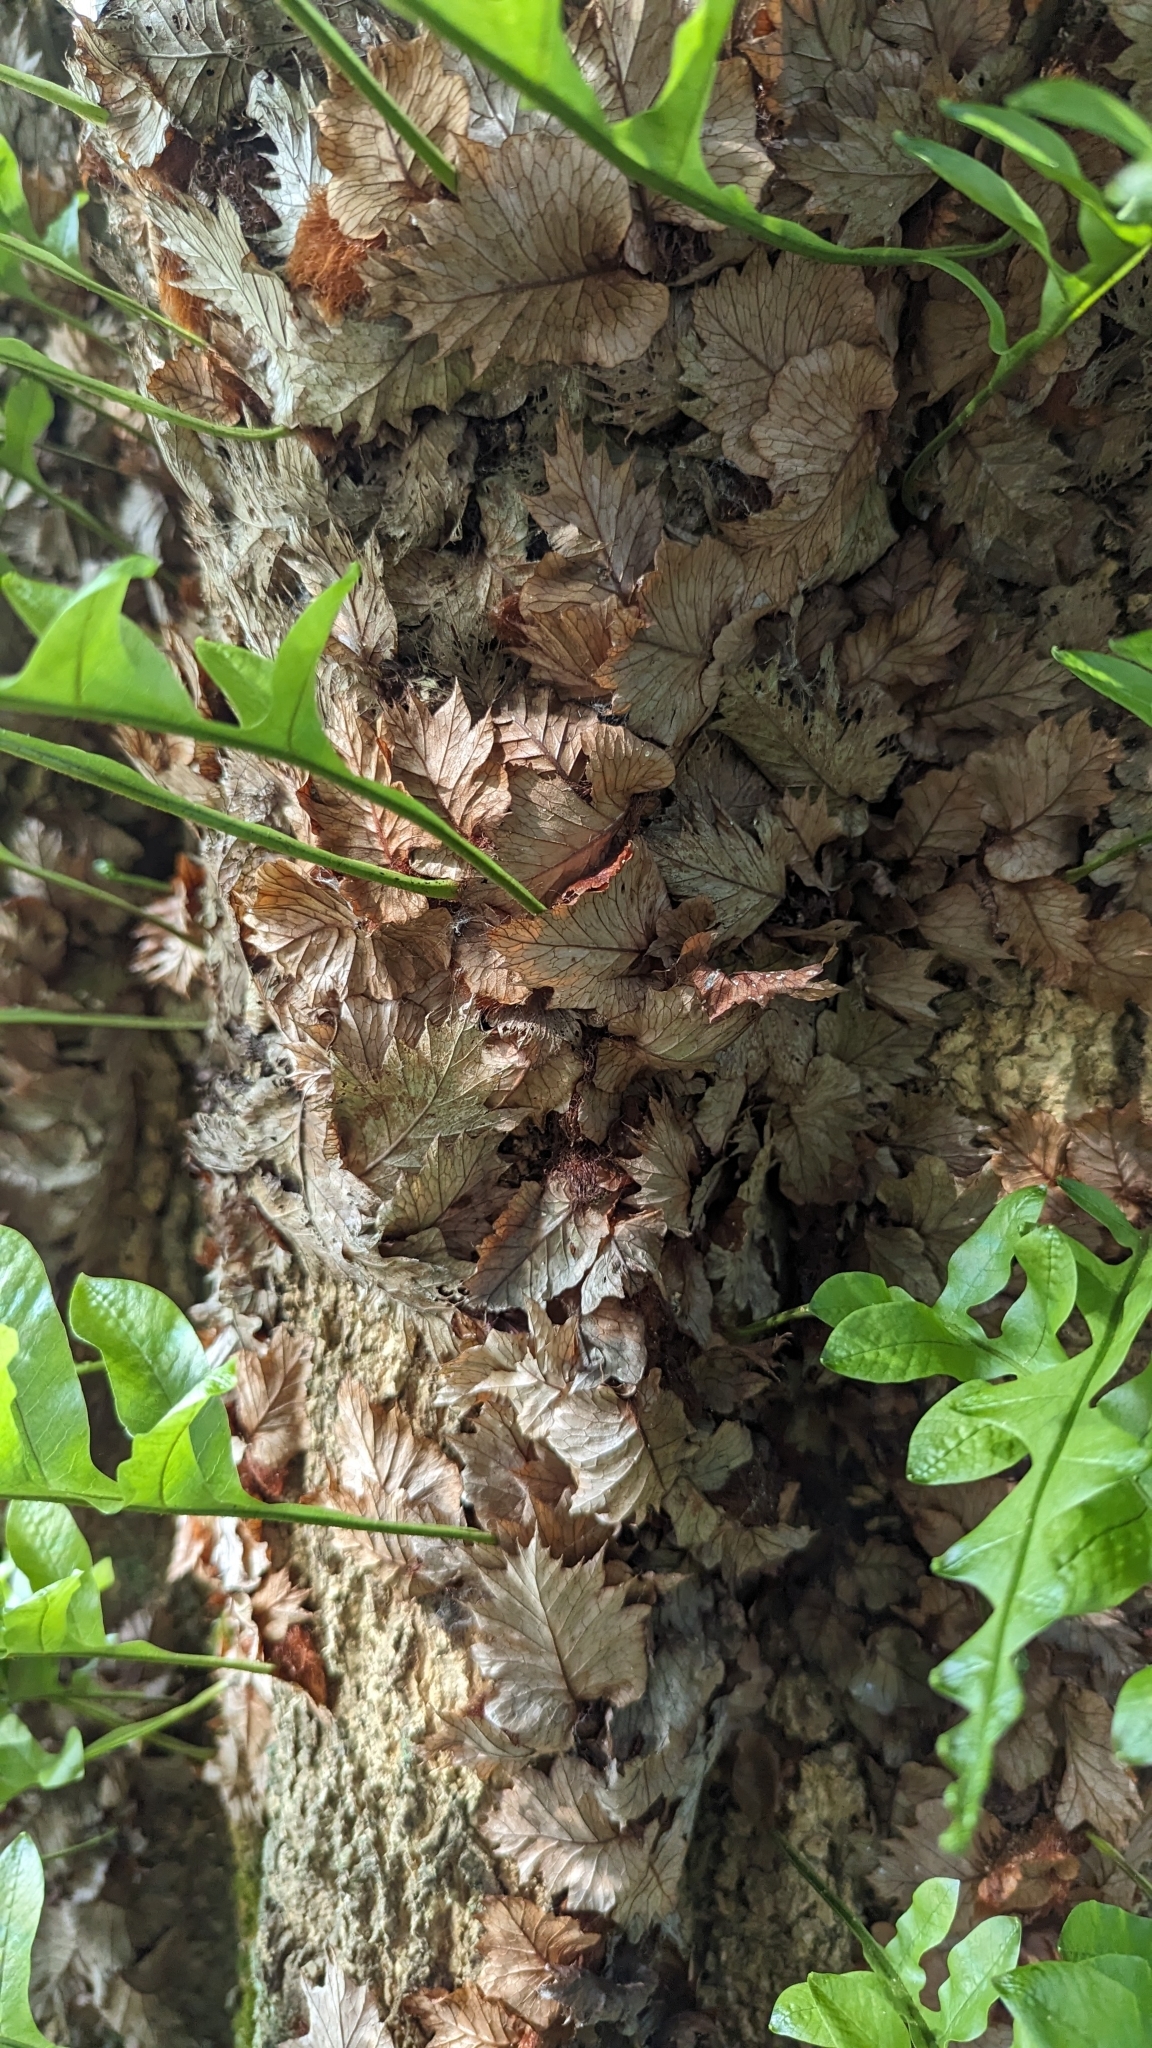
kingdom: Plantae
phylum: Tracheophyta
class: Polypodiopsida
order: Polypodiales
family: Polypodiaceae
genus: Drynaria
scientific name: Drynaria roosii
